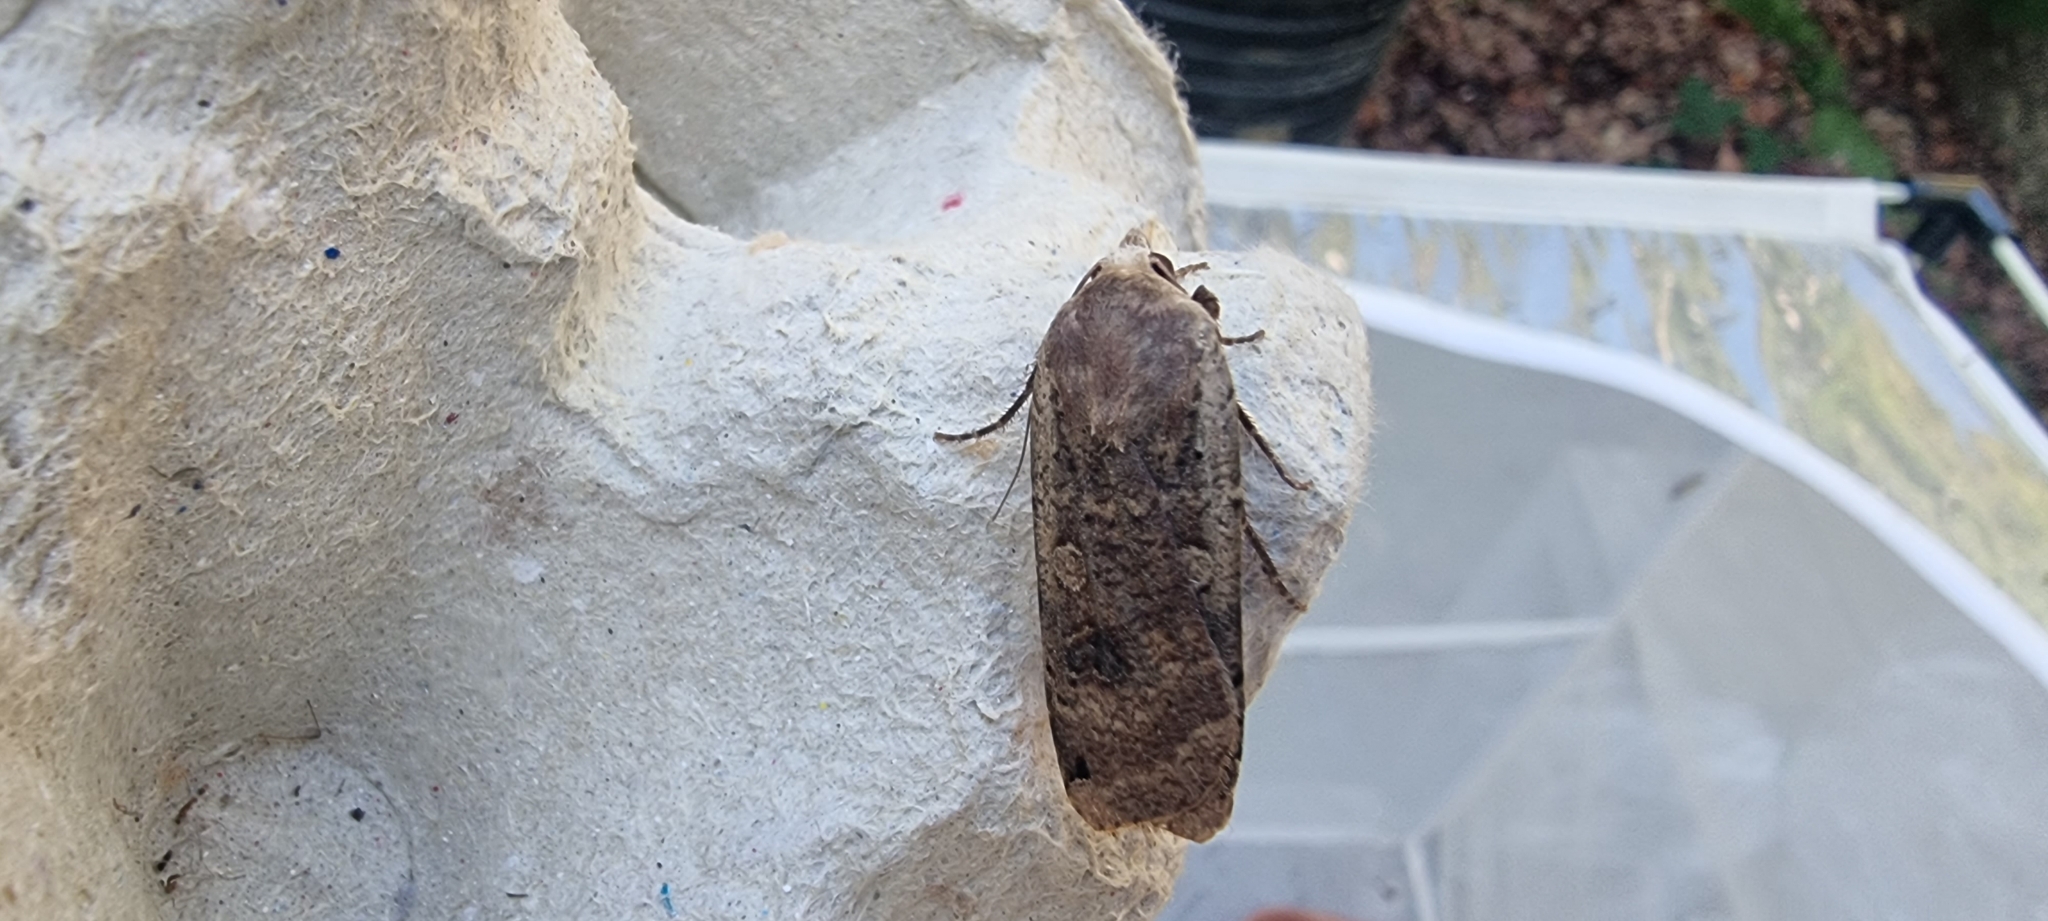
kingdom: Animalia
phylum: Arthropoda
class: Insecta
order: Lepidoptera
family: Noctuidae
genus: Noctua
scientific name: Noctua pronuba
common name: Large yellow underwing
